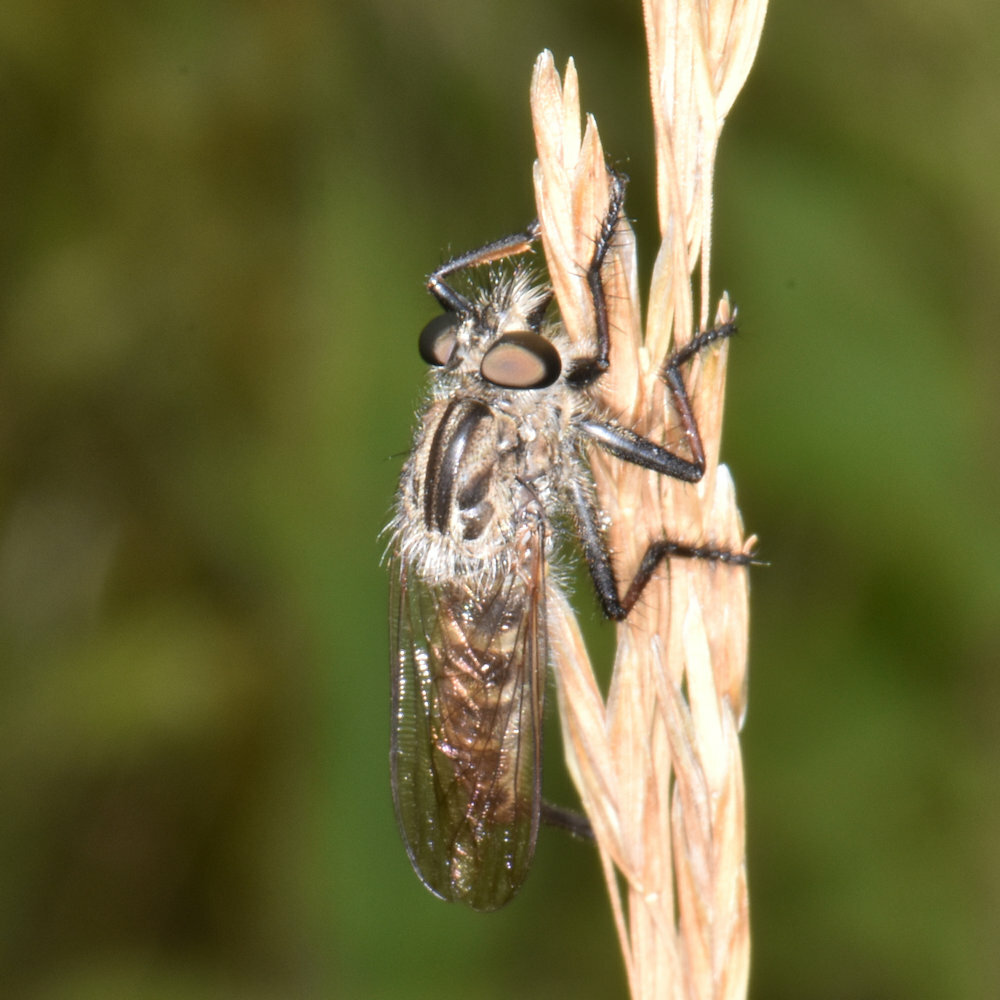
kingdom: Animalia
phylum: Arthropoda
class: Insecta
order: Diptera
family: Asilidae
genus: Efferia
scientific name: Efferia aestuans
